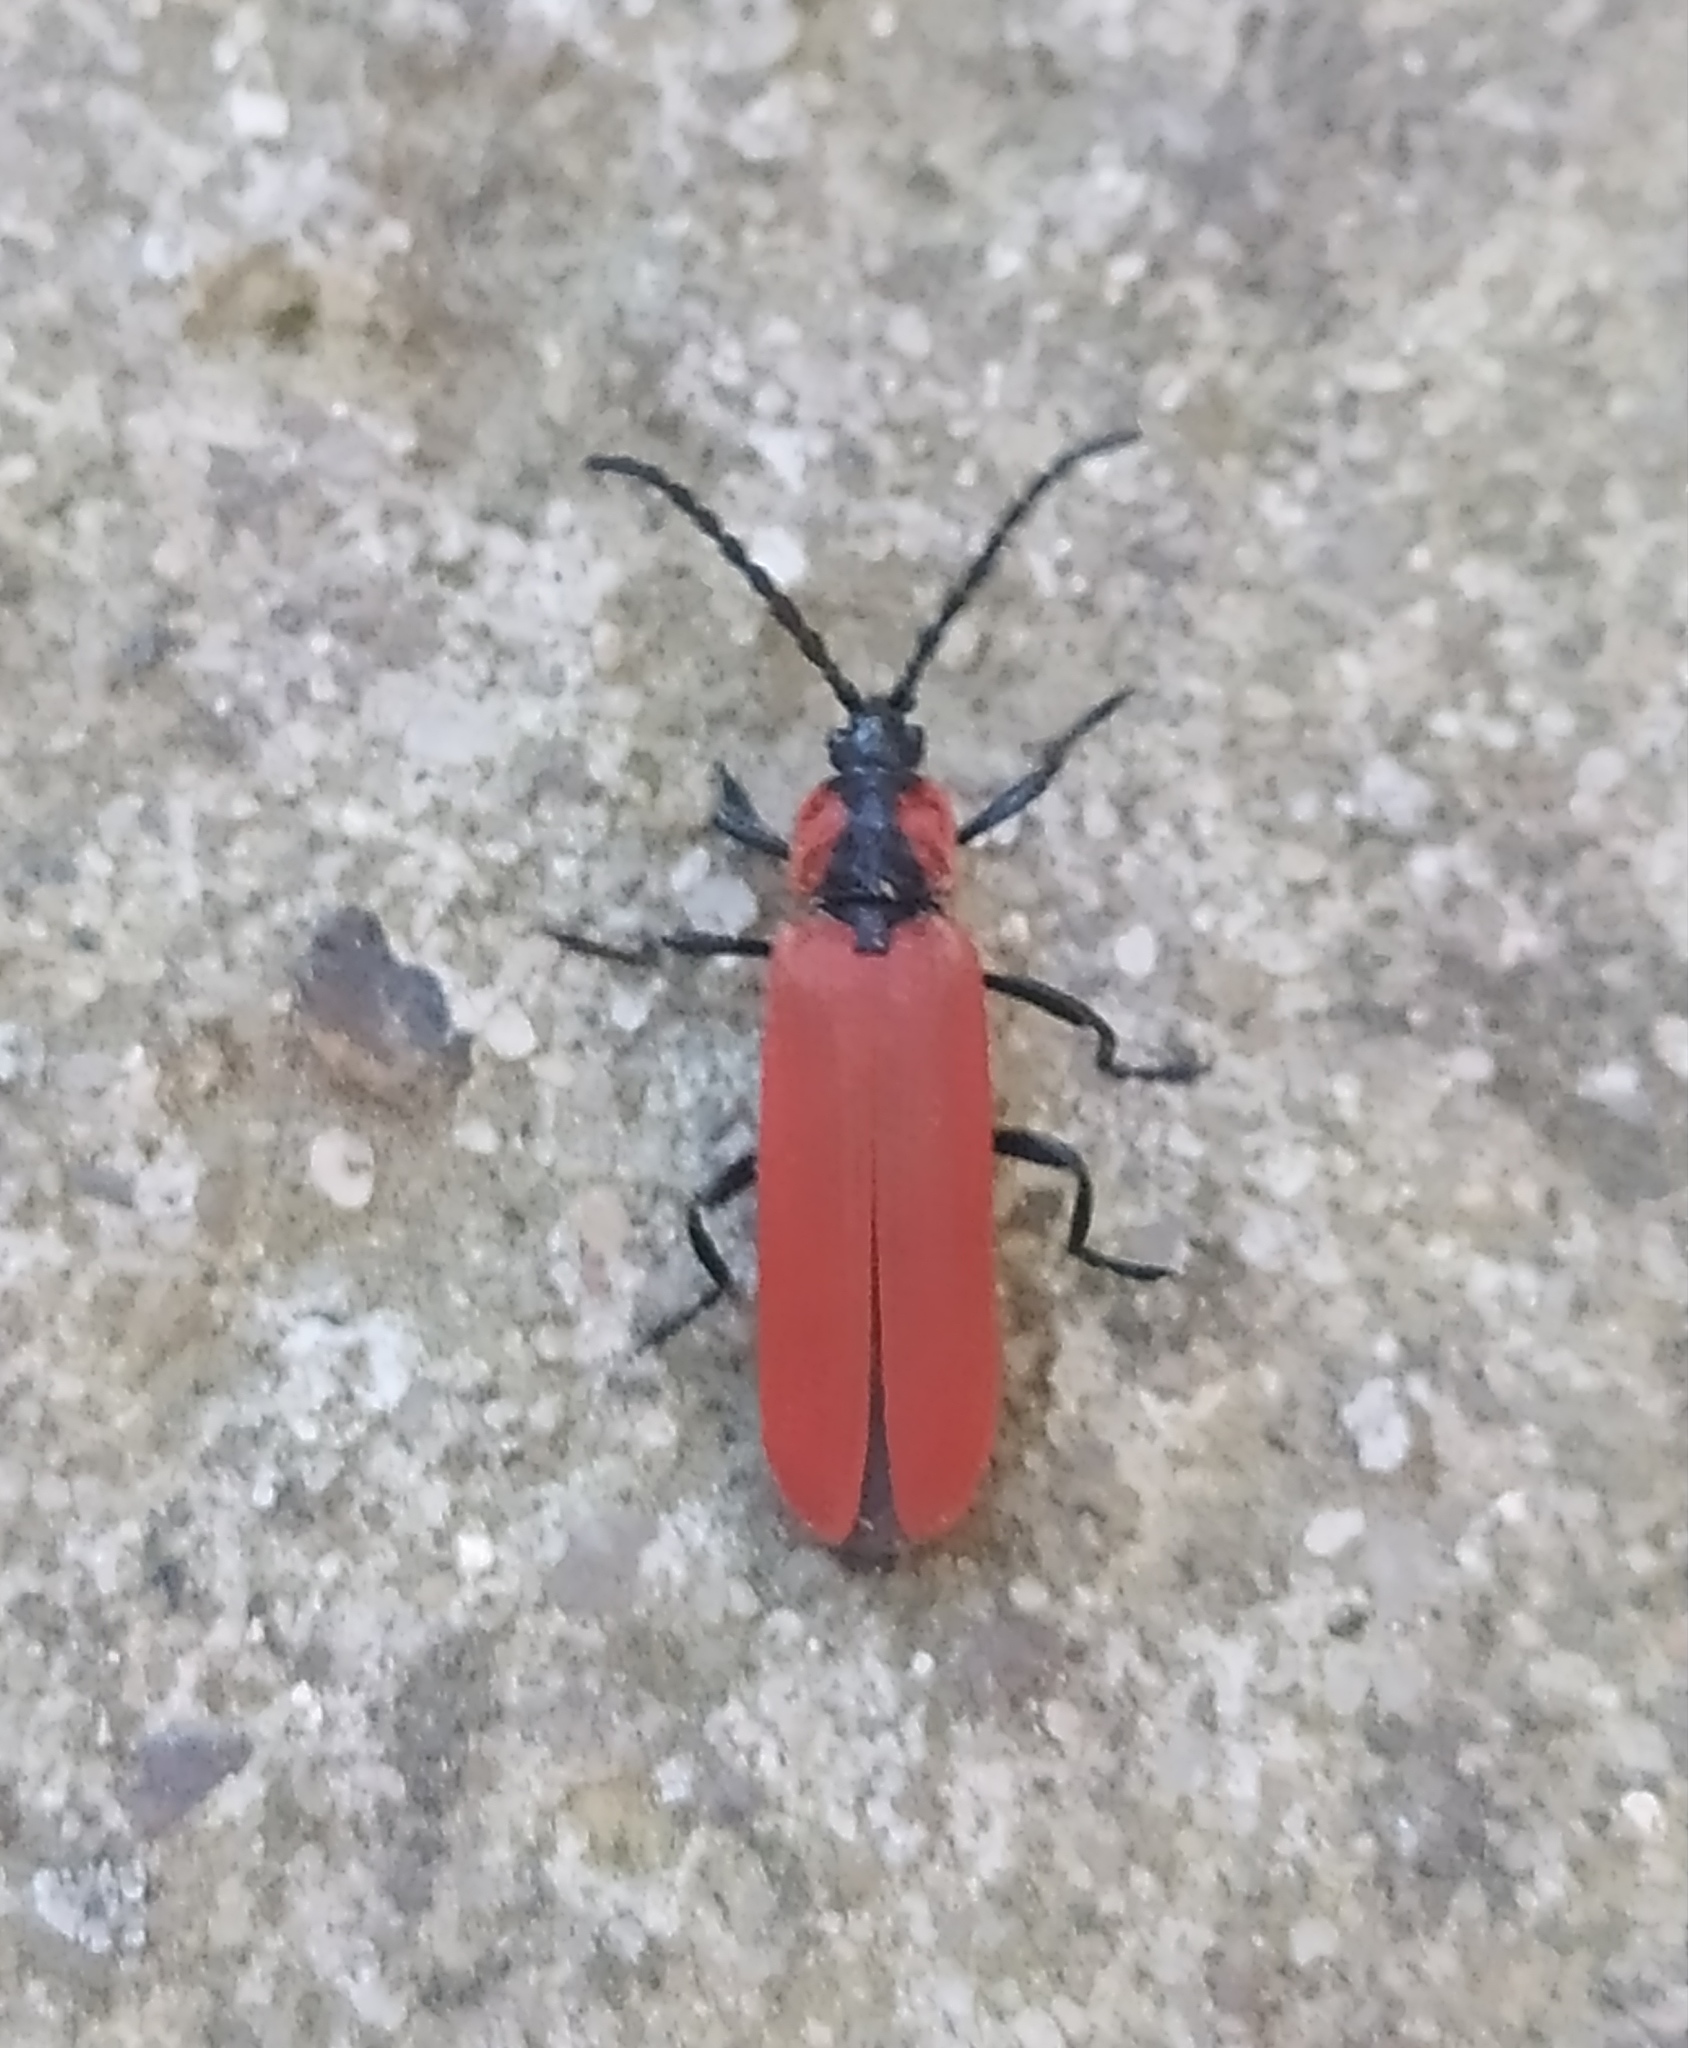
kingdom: Animalia
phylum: Arthropoda
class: Insecta
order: Coleoptera
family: Lycidae
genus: Lygistopterus
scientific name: Lygistopterus sanguineus
